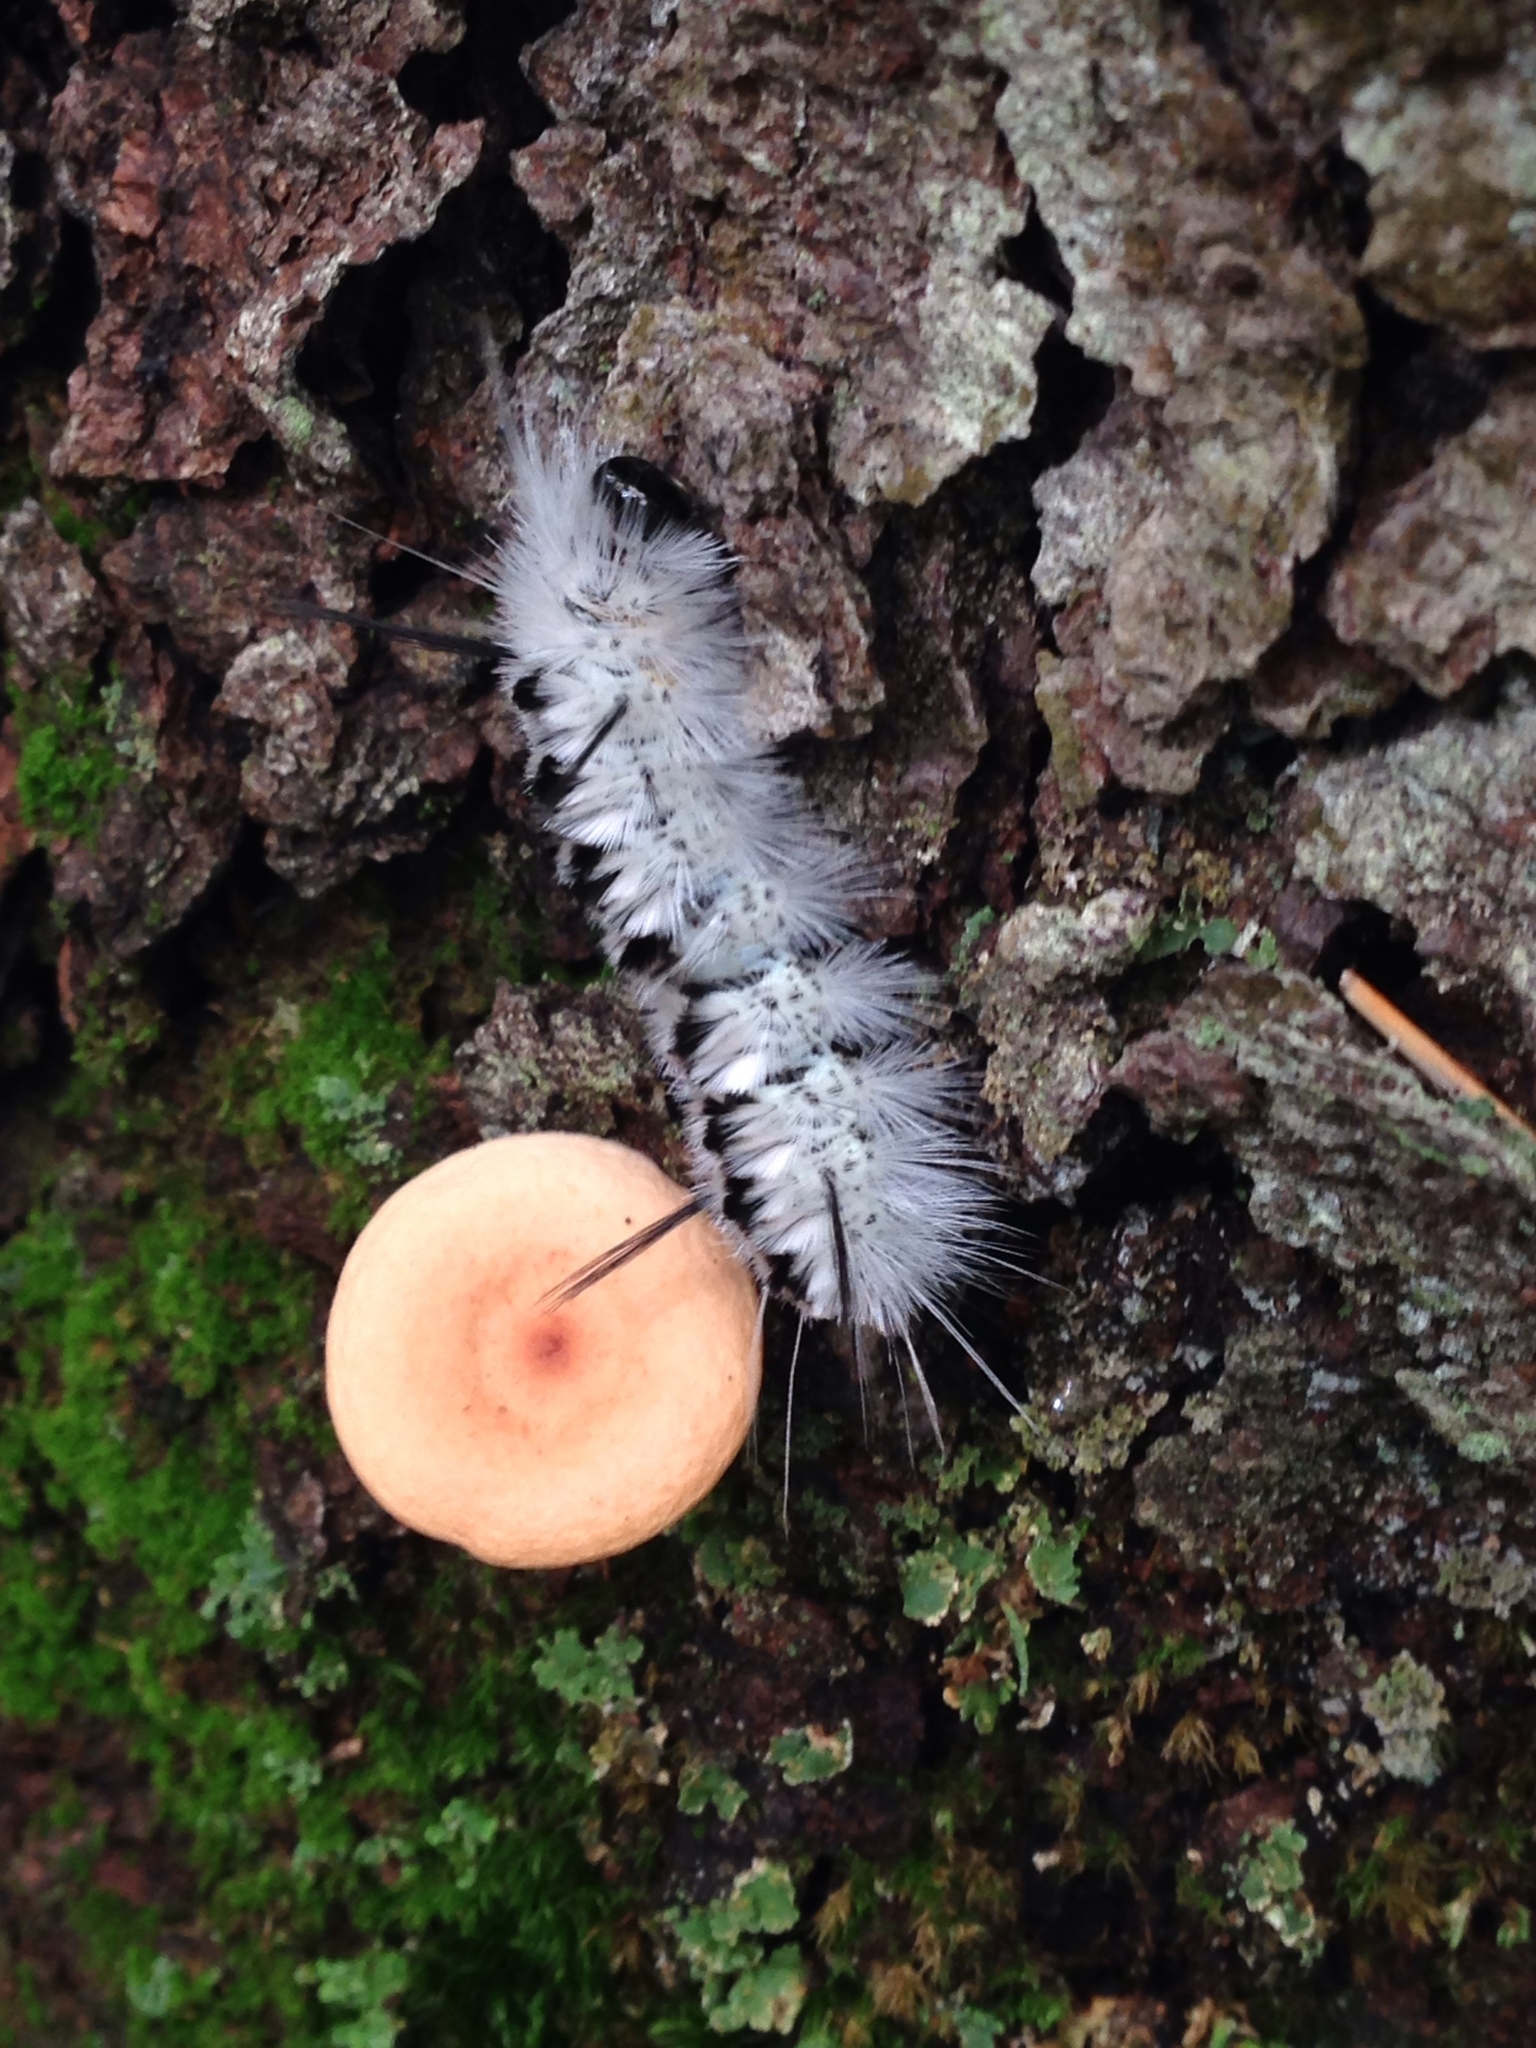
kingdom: Animalia
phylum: Arthropoda
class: Insecta
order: Lepidoptera
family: Erebidae
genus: Lophocampa
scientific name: Lophocampa caryae
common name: Hickory tussock moth
